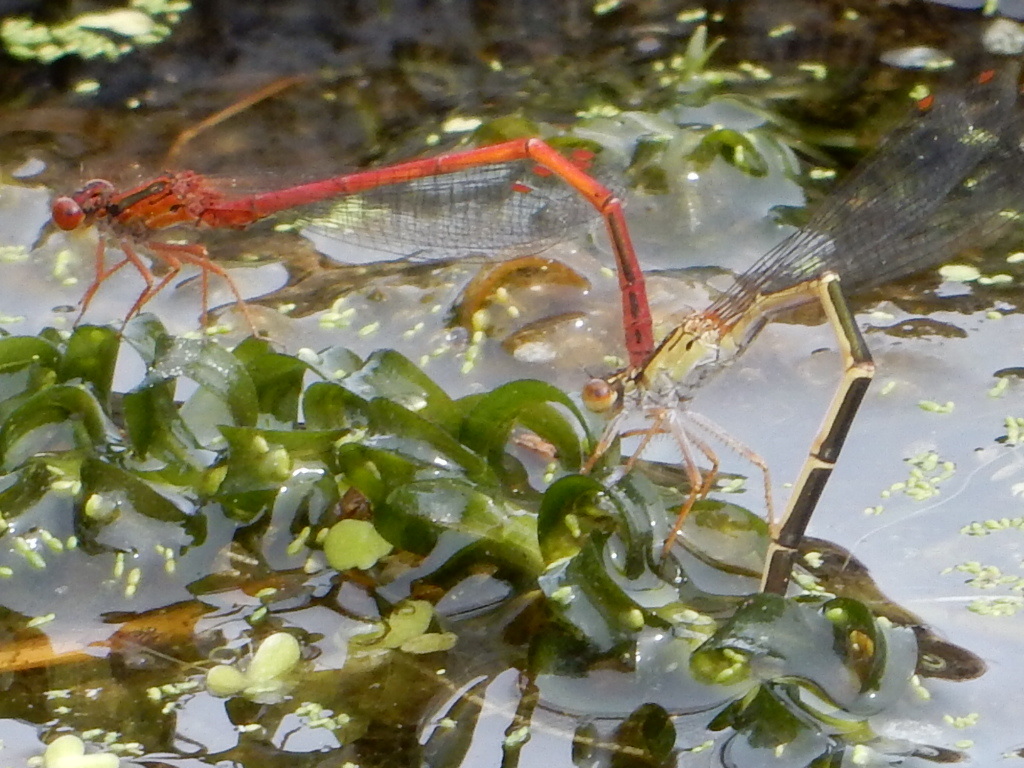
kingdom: Animalia
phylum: Arthropoda
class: Insecta
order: Odonata
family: Coenagrionidae
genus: Xanthocnemis
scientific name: Xanthocnemis zealandica
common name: Common redcoat damselfly
